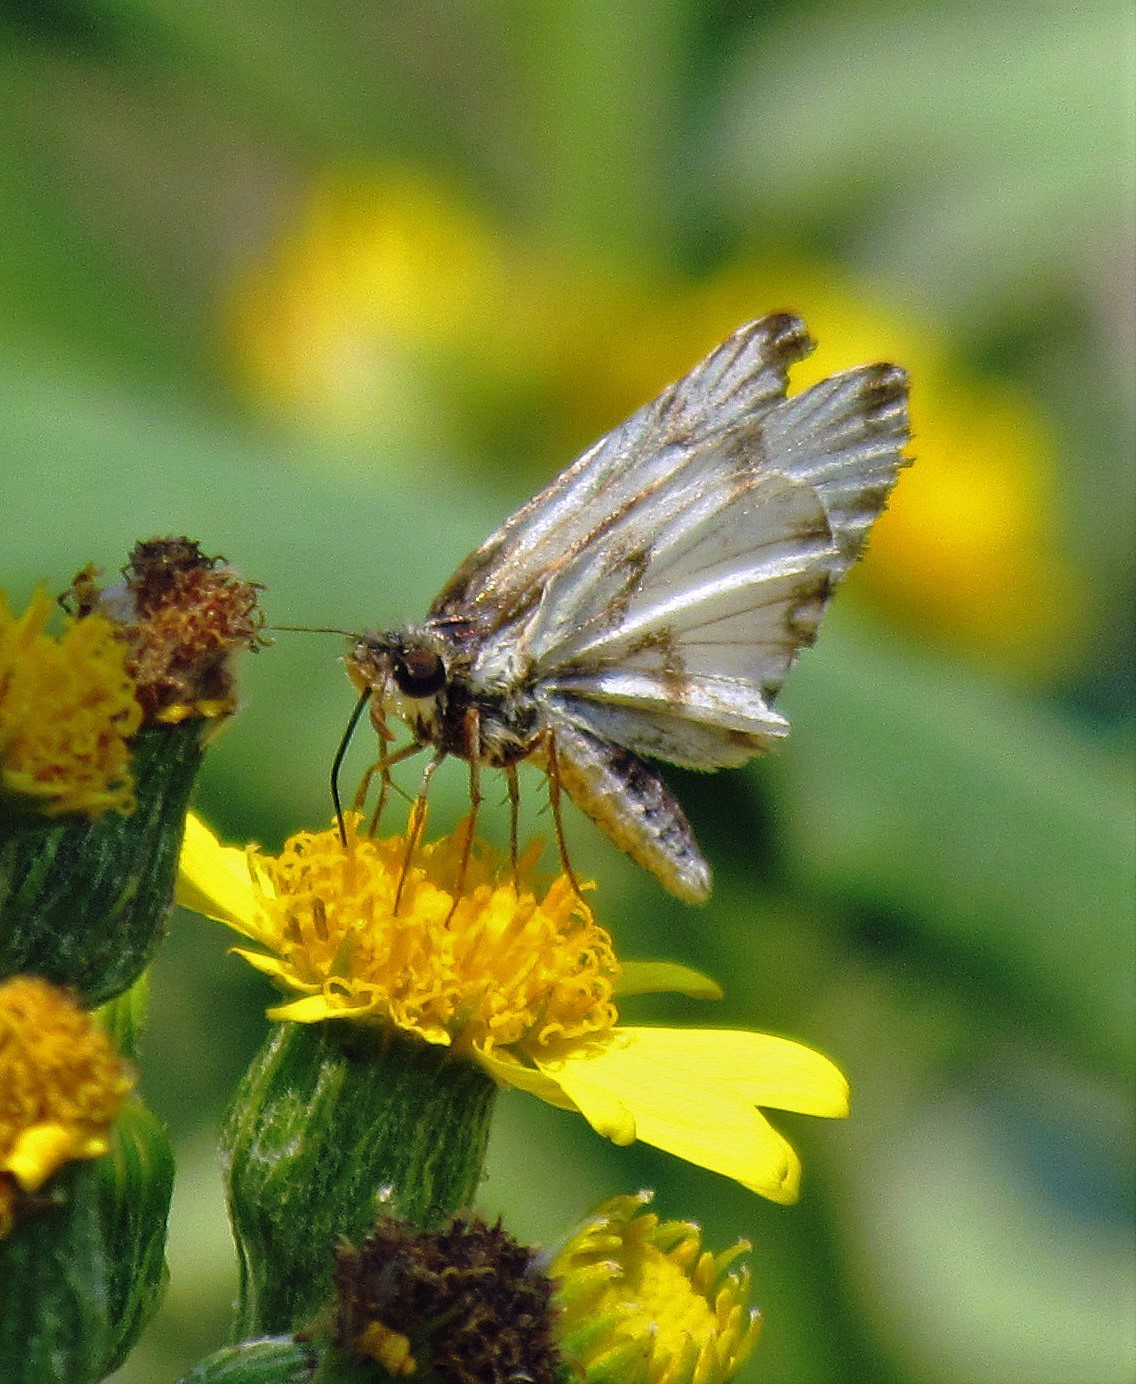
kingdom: Animalia
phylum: Arthropoda
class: Insecta
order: Lepidoptera
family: Hesperiidae
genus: Heliopetes
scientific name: Heliopetes omrina
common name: Stained white-skipper
